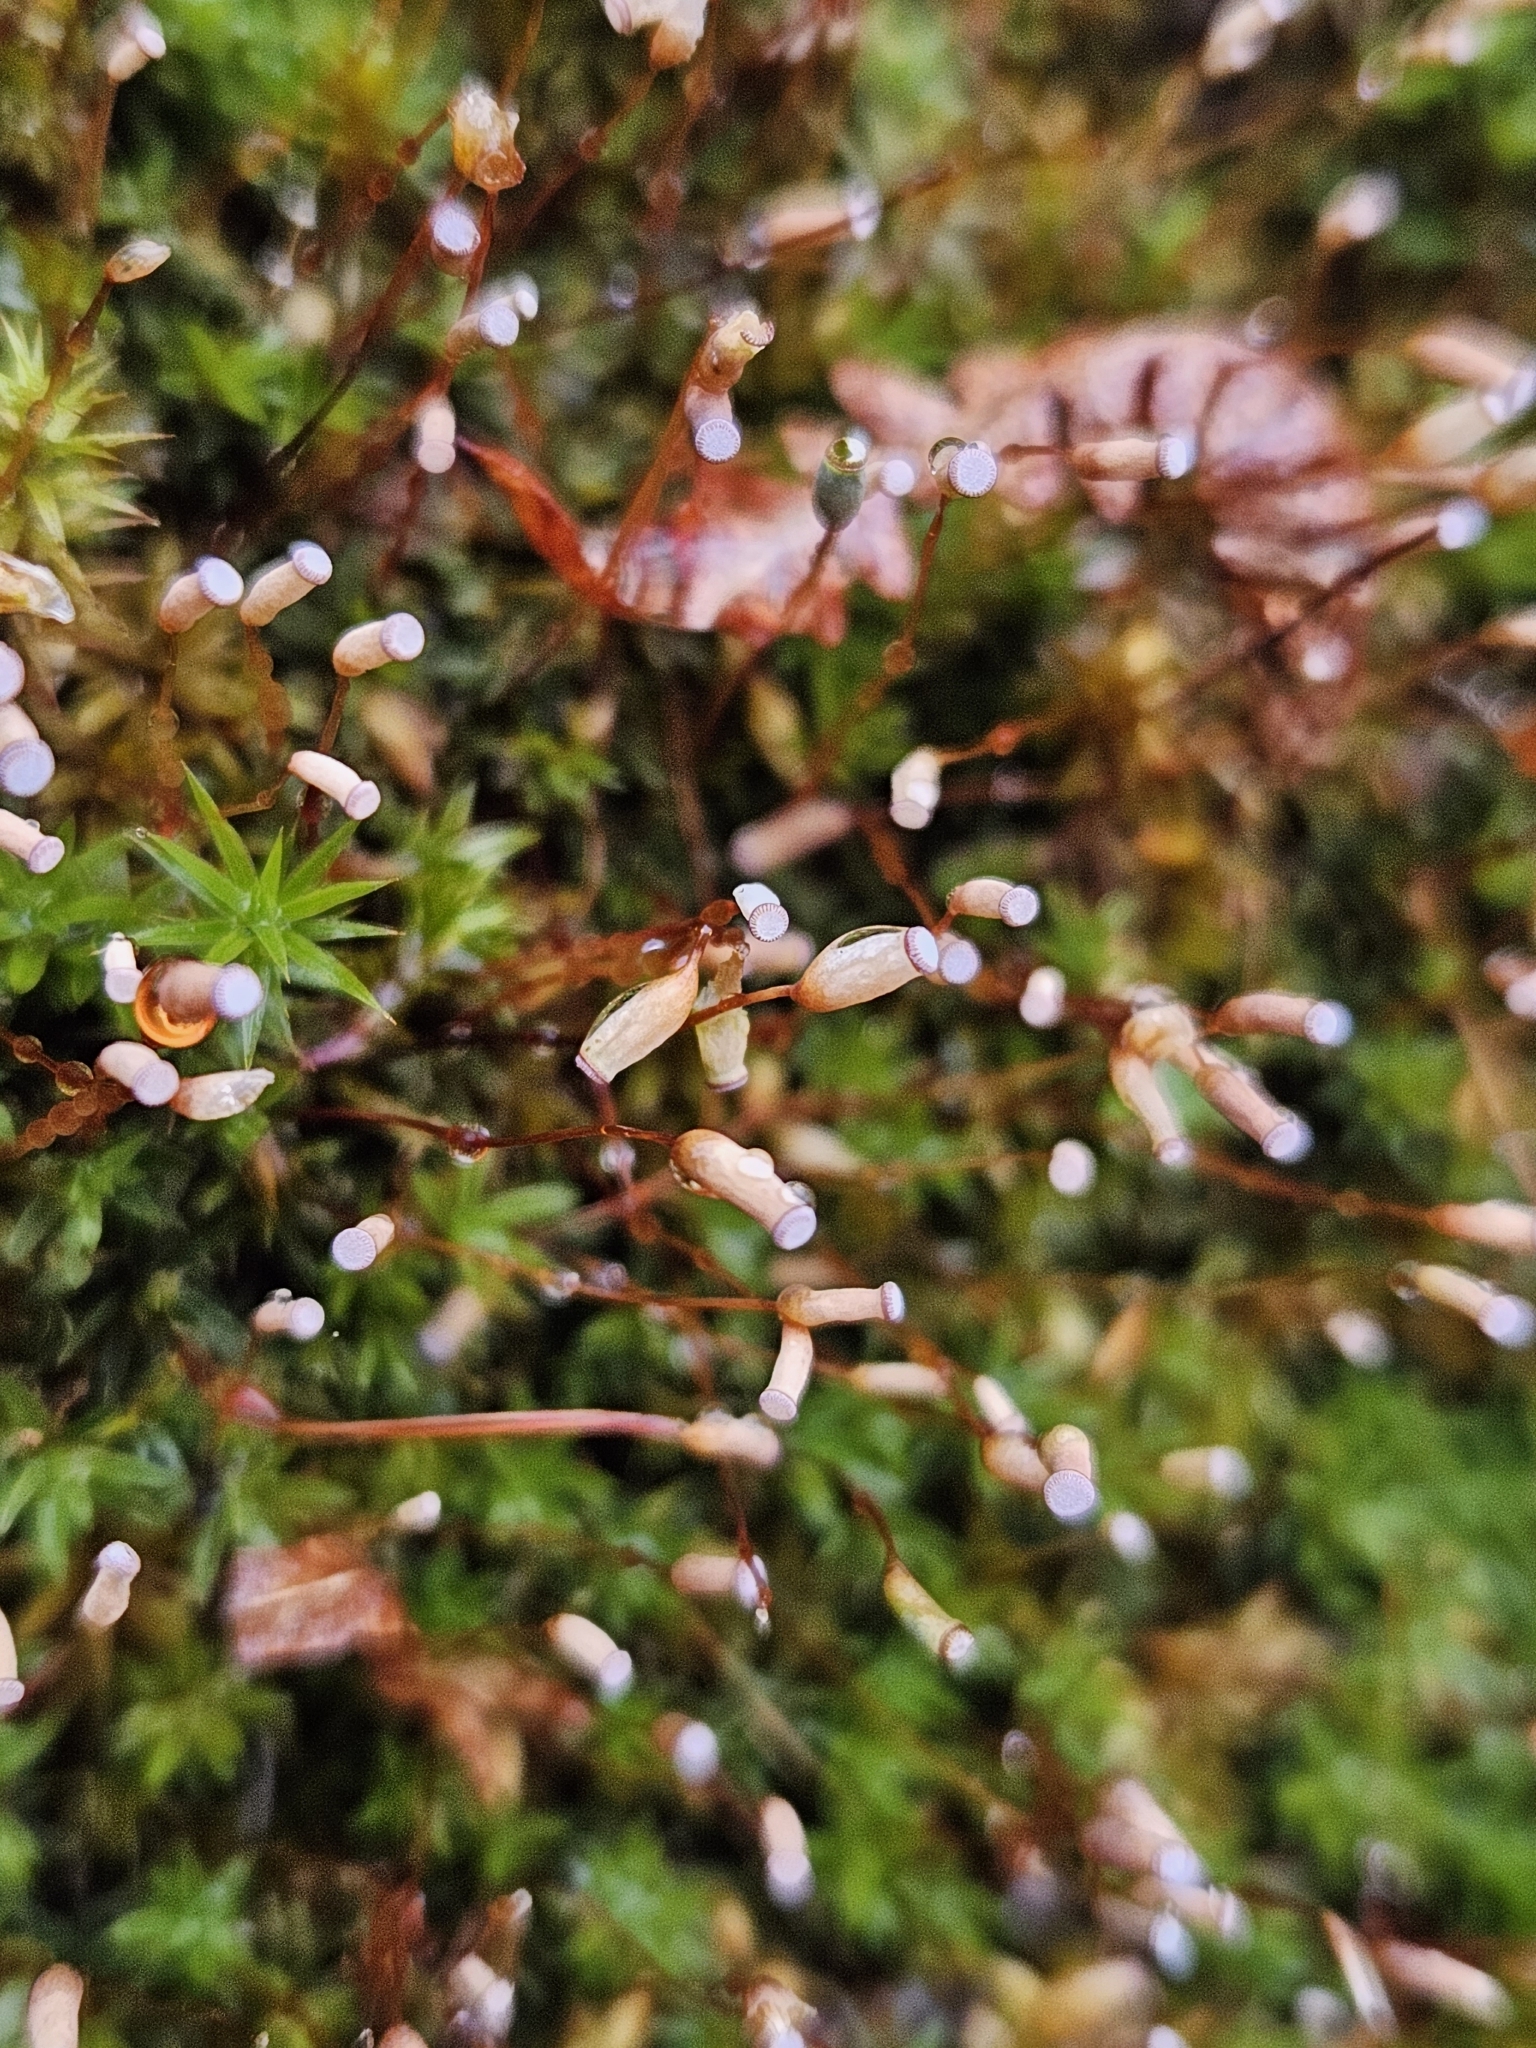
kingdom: Plantae
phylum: Bryophyta
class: Polytrichopsida
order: Polytrichales
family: Polytrichaceae
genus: Pogonatum
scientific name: Pogonatum aloides
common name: Aloe haircap
